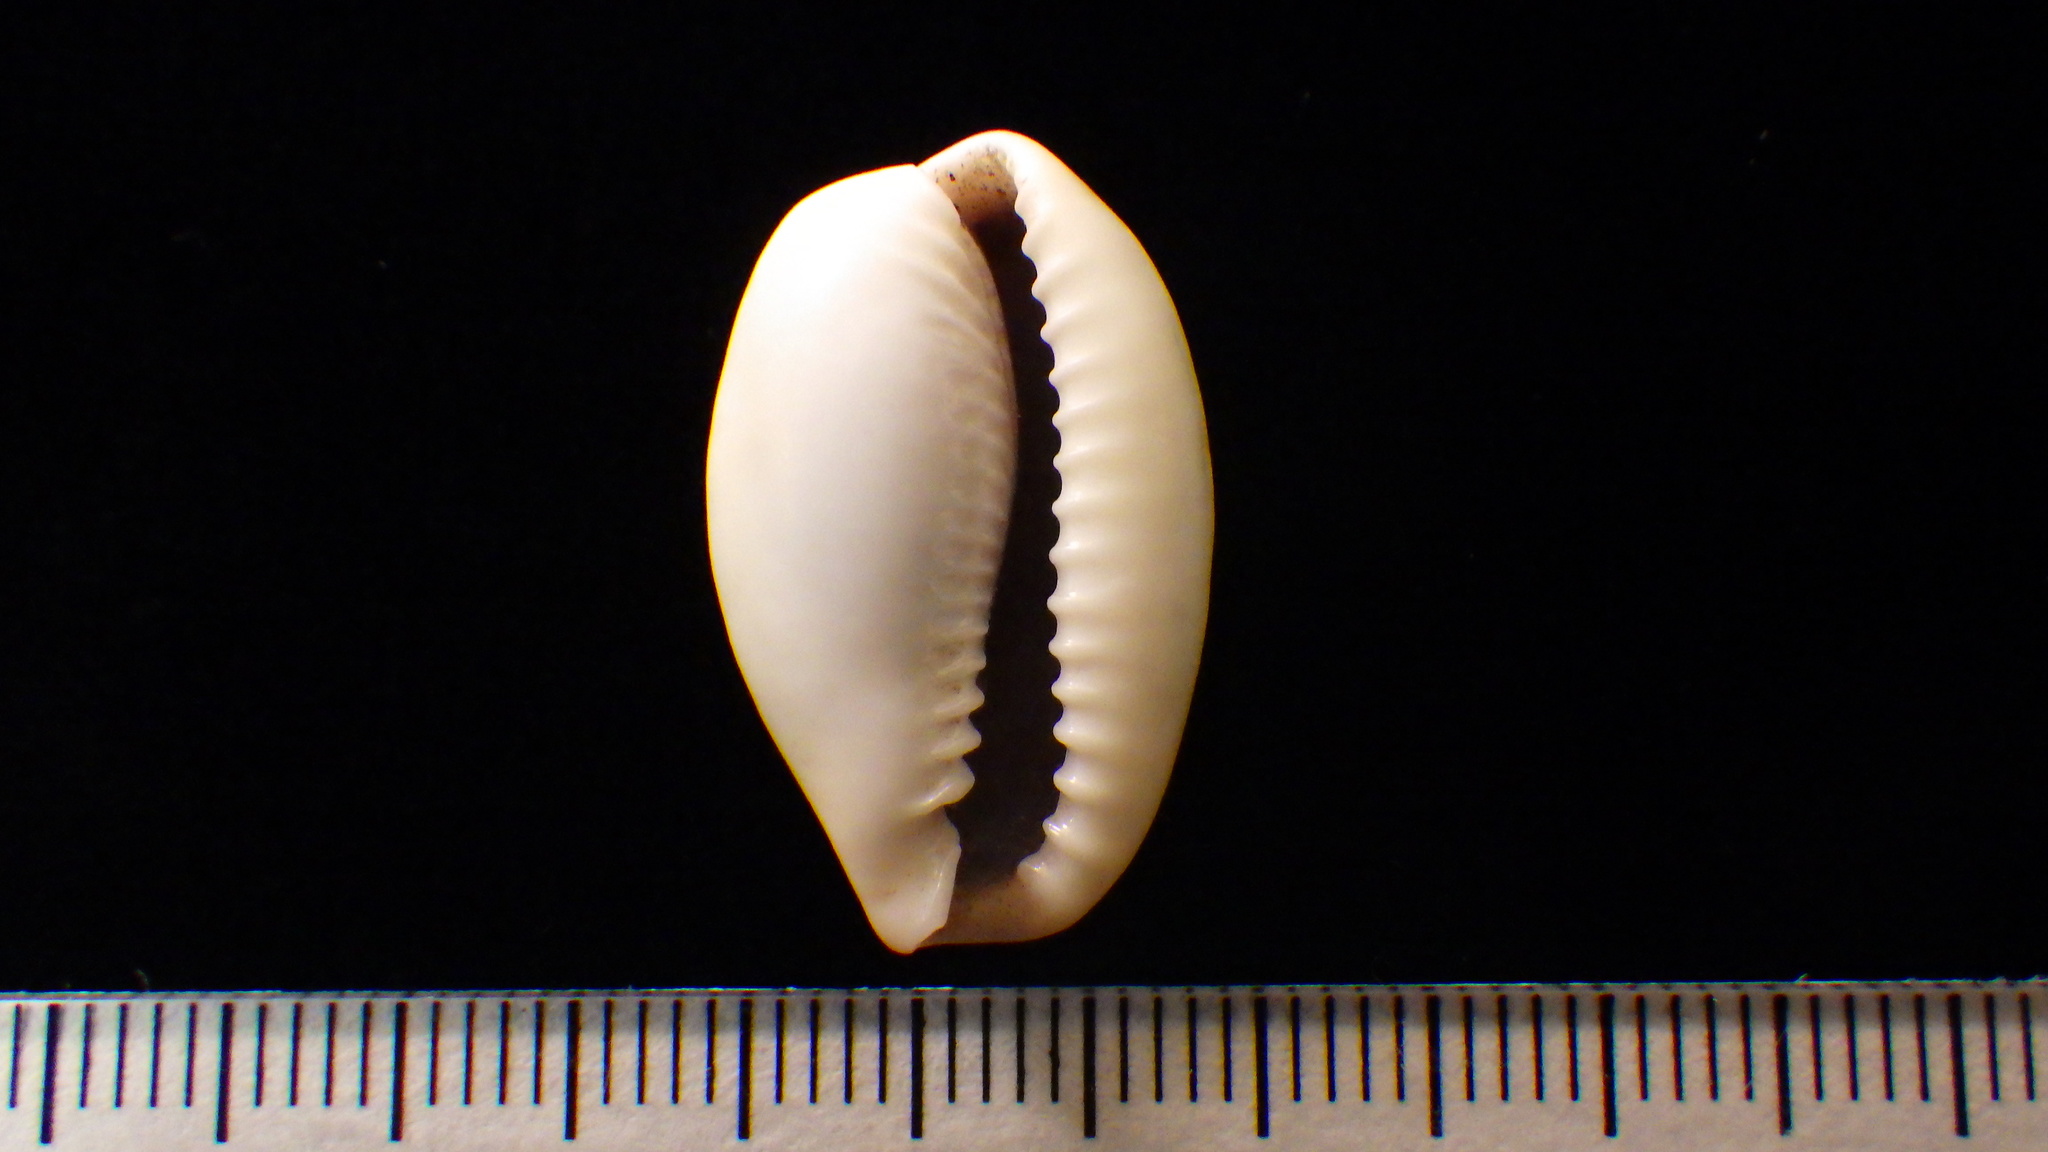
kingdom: Animalia
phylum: Mollusca
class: Gastropoda
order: Littorinimorpha
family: Cypraeidae
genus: Naria
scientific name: Naria boivinii
